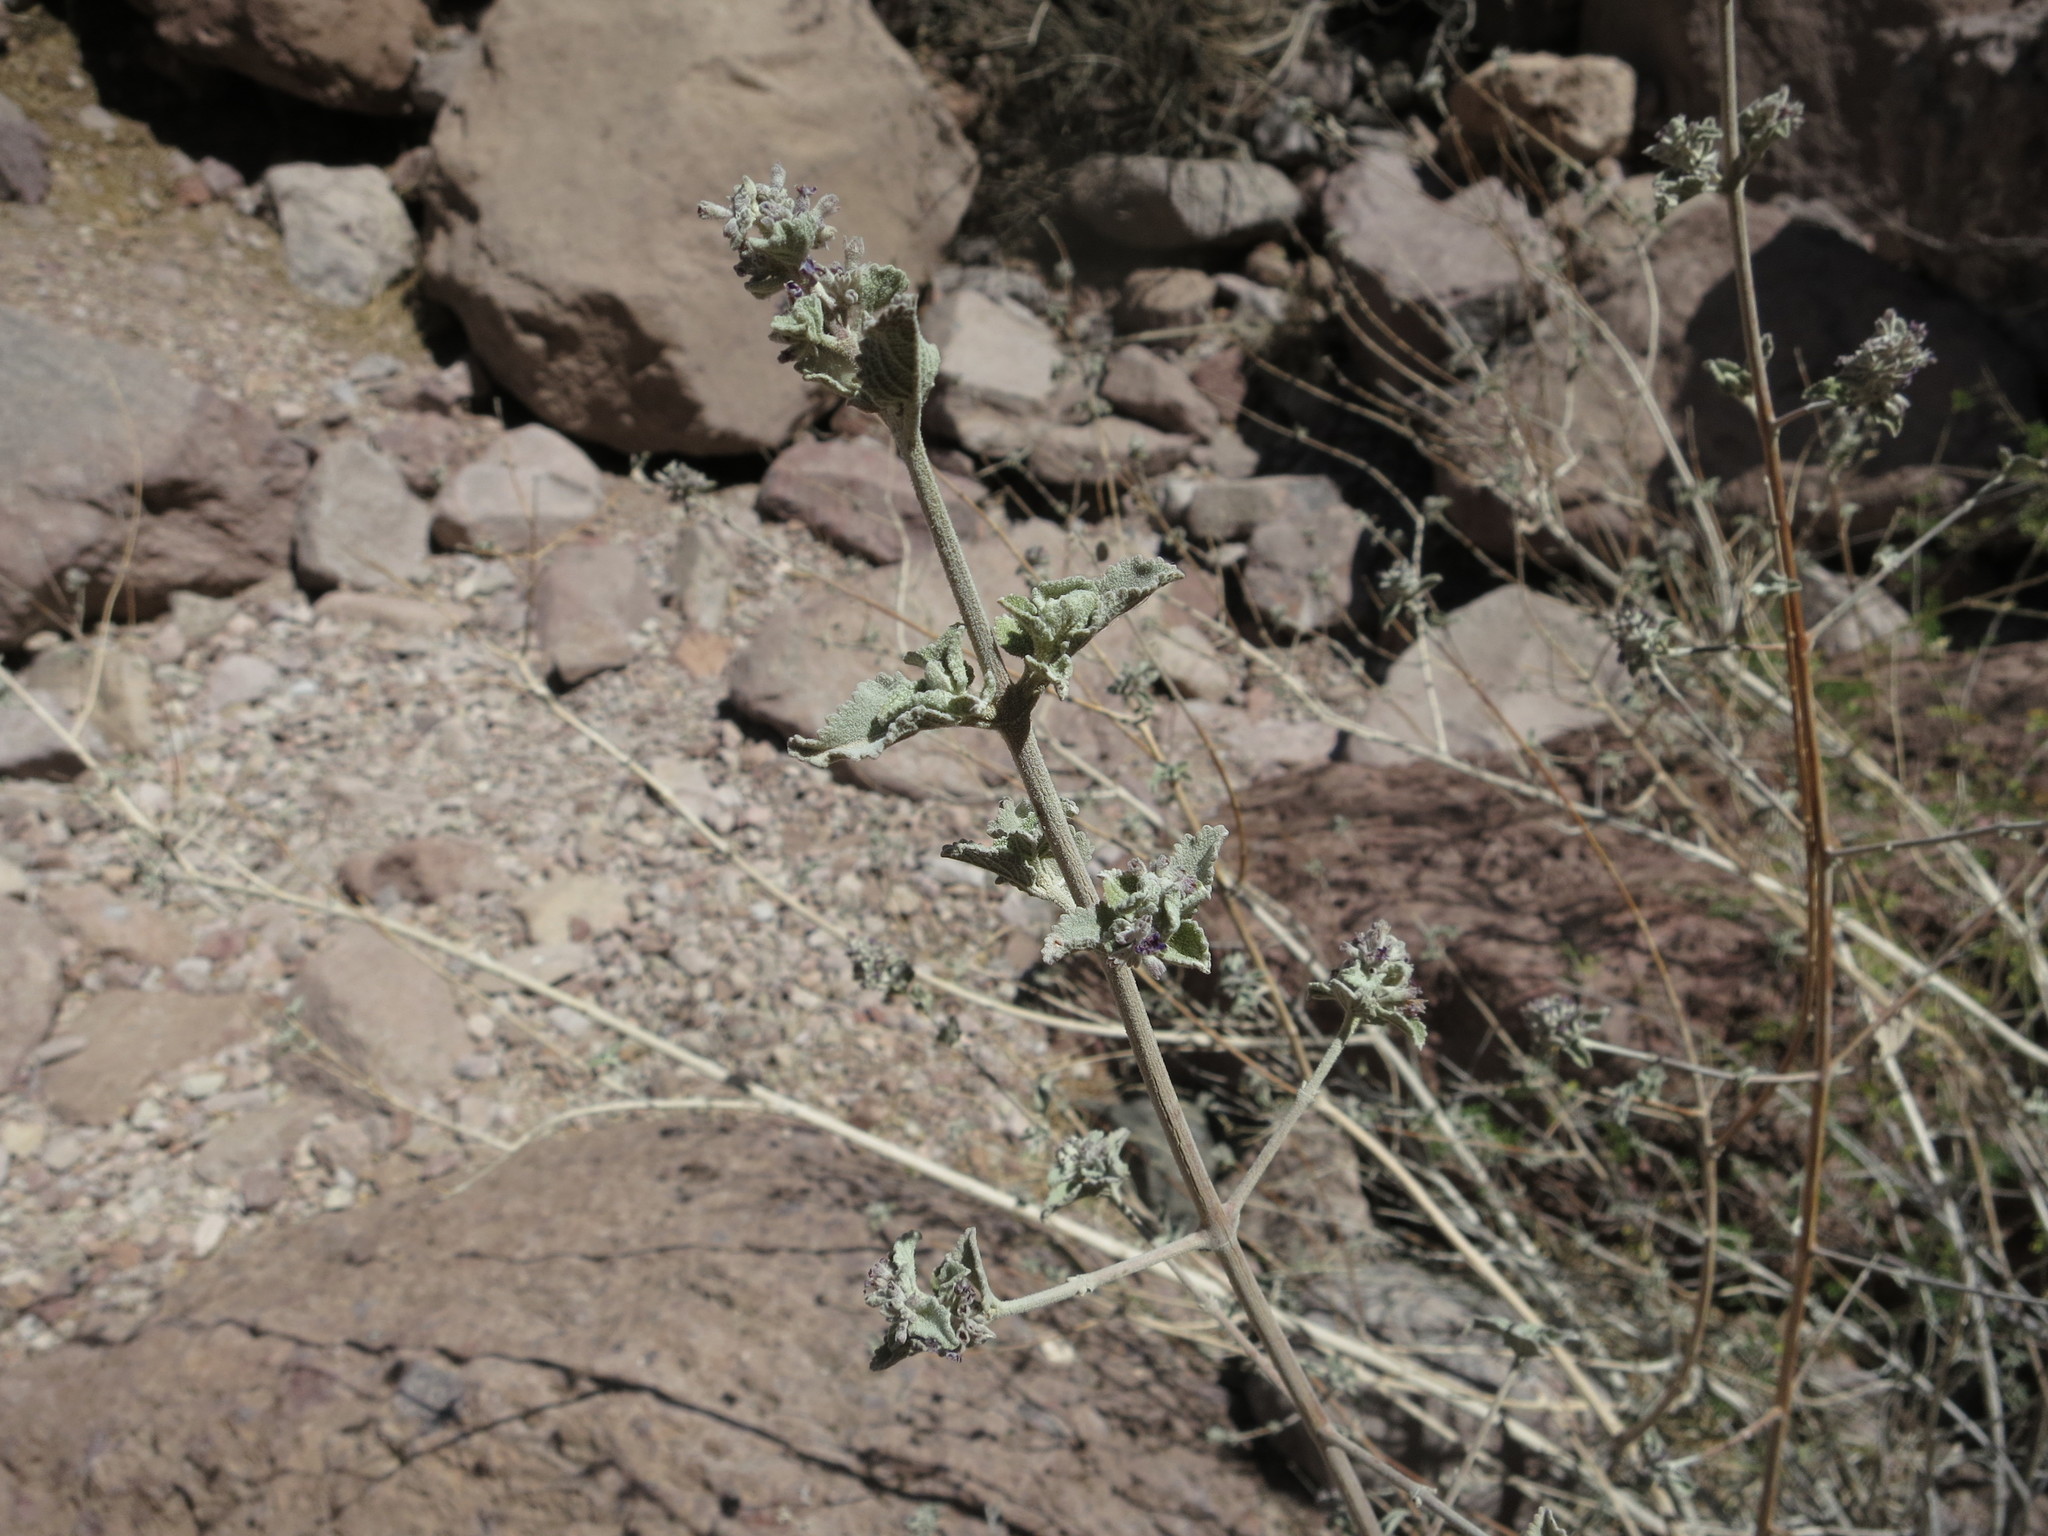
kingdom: Plantae
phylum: Tracheophyta
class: Magnoliopsida
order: Lamiales
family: Lamiaceae
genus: Condea
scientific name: Condea emoryi
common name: Chia
